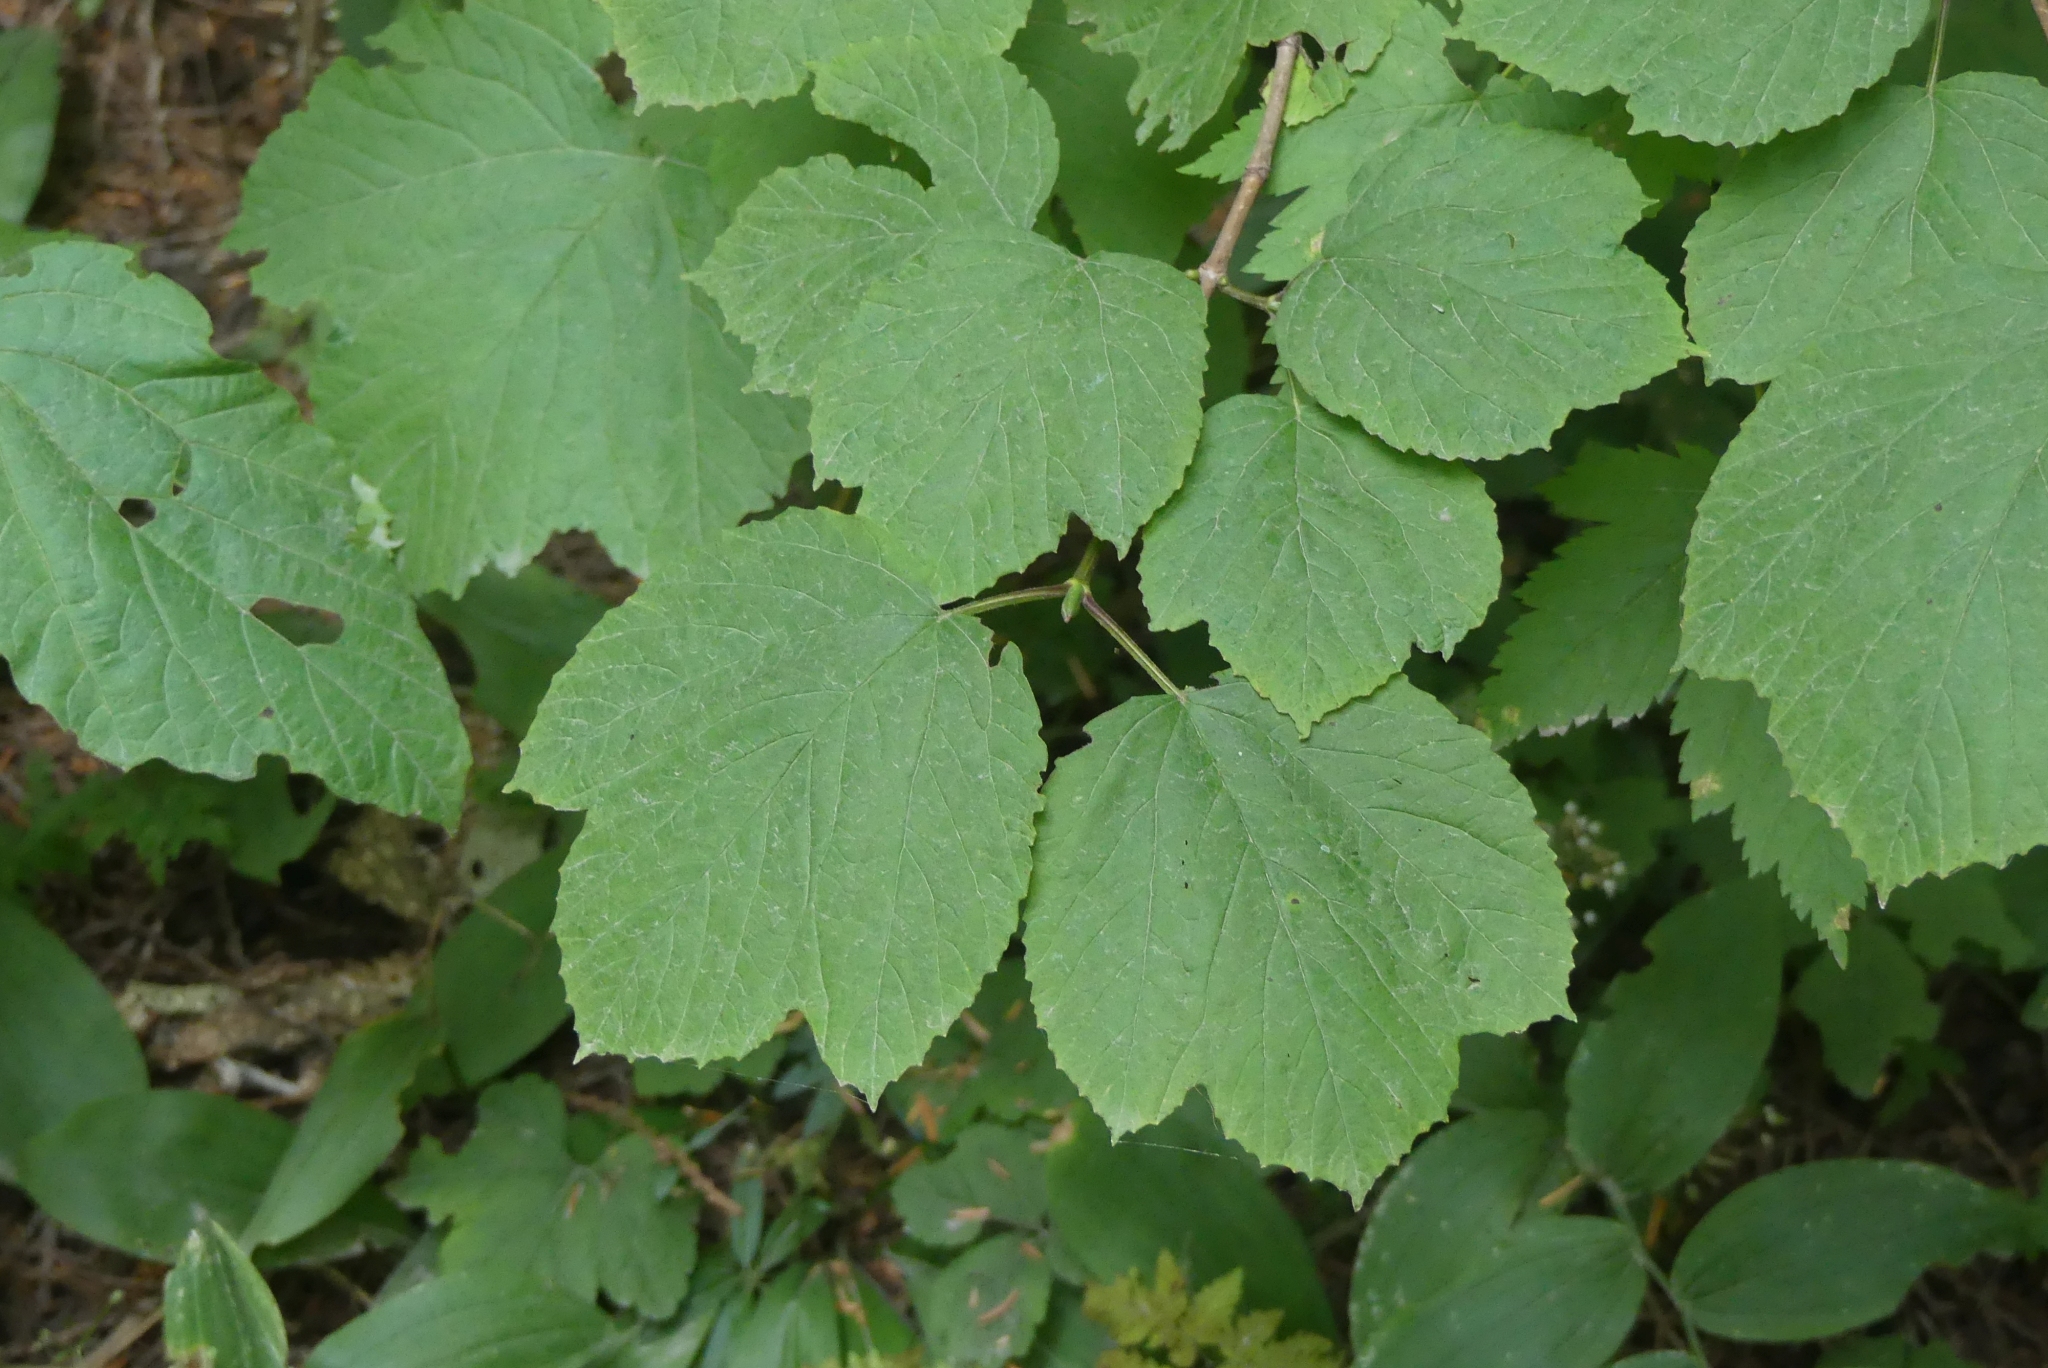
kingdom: Plantae
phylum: Tracheophyta
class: Magnoliopsida
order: Dipsacales
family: Viburnaceae
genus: Viburnum
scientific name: Viburnum edule
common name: Mooseberry
